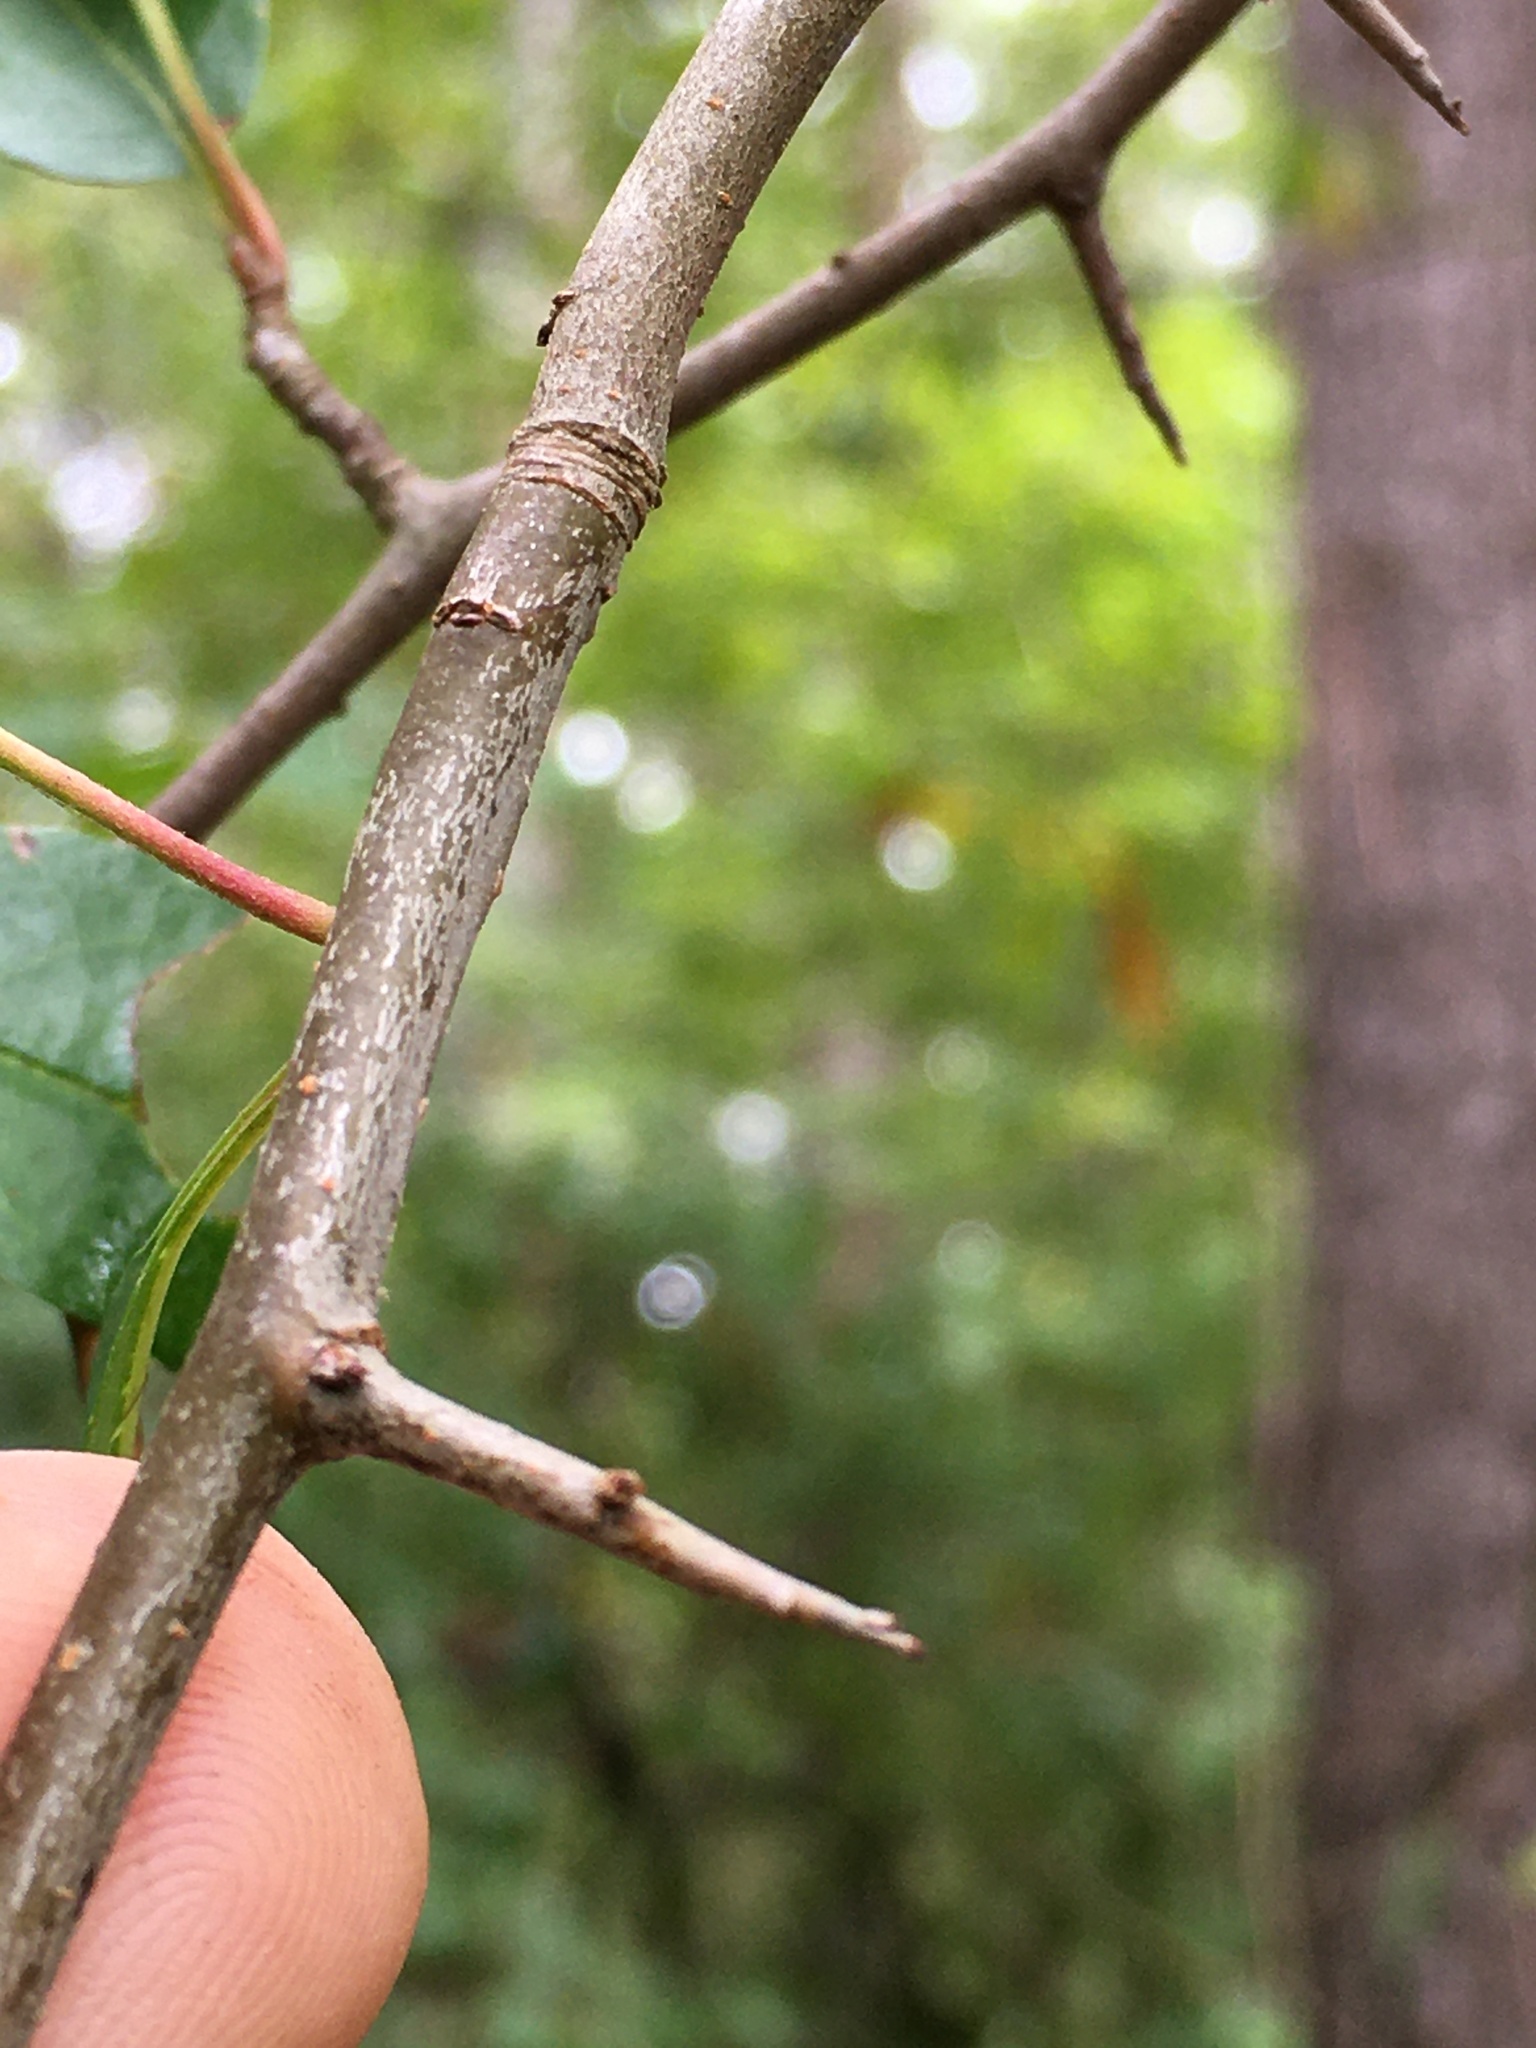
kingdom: Plantae
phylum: Tracheophyta
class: Magnoliopsida
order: Rosales
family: Rosaceae
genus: Malus
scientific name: Malus angustifolia
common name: Southern crab apple
